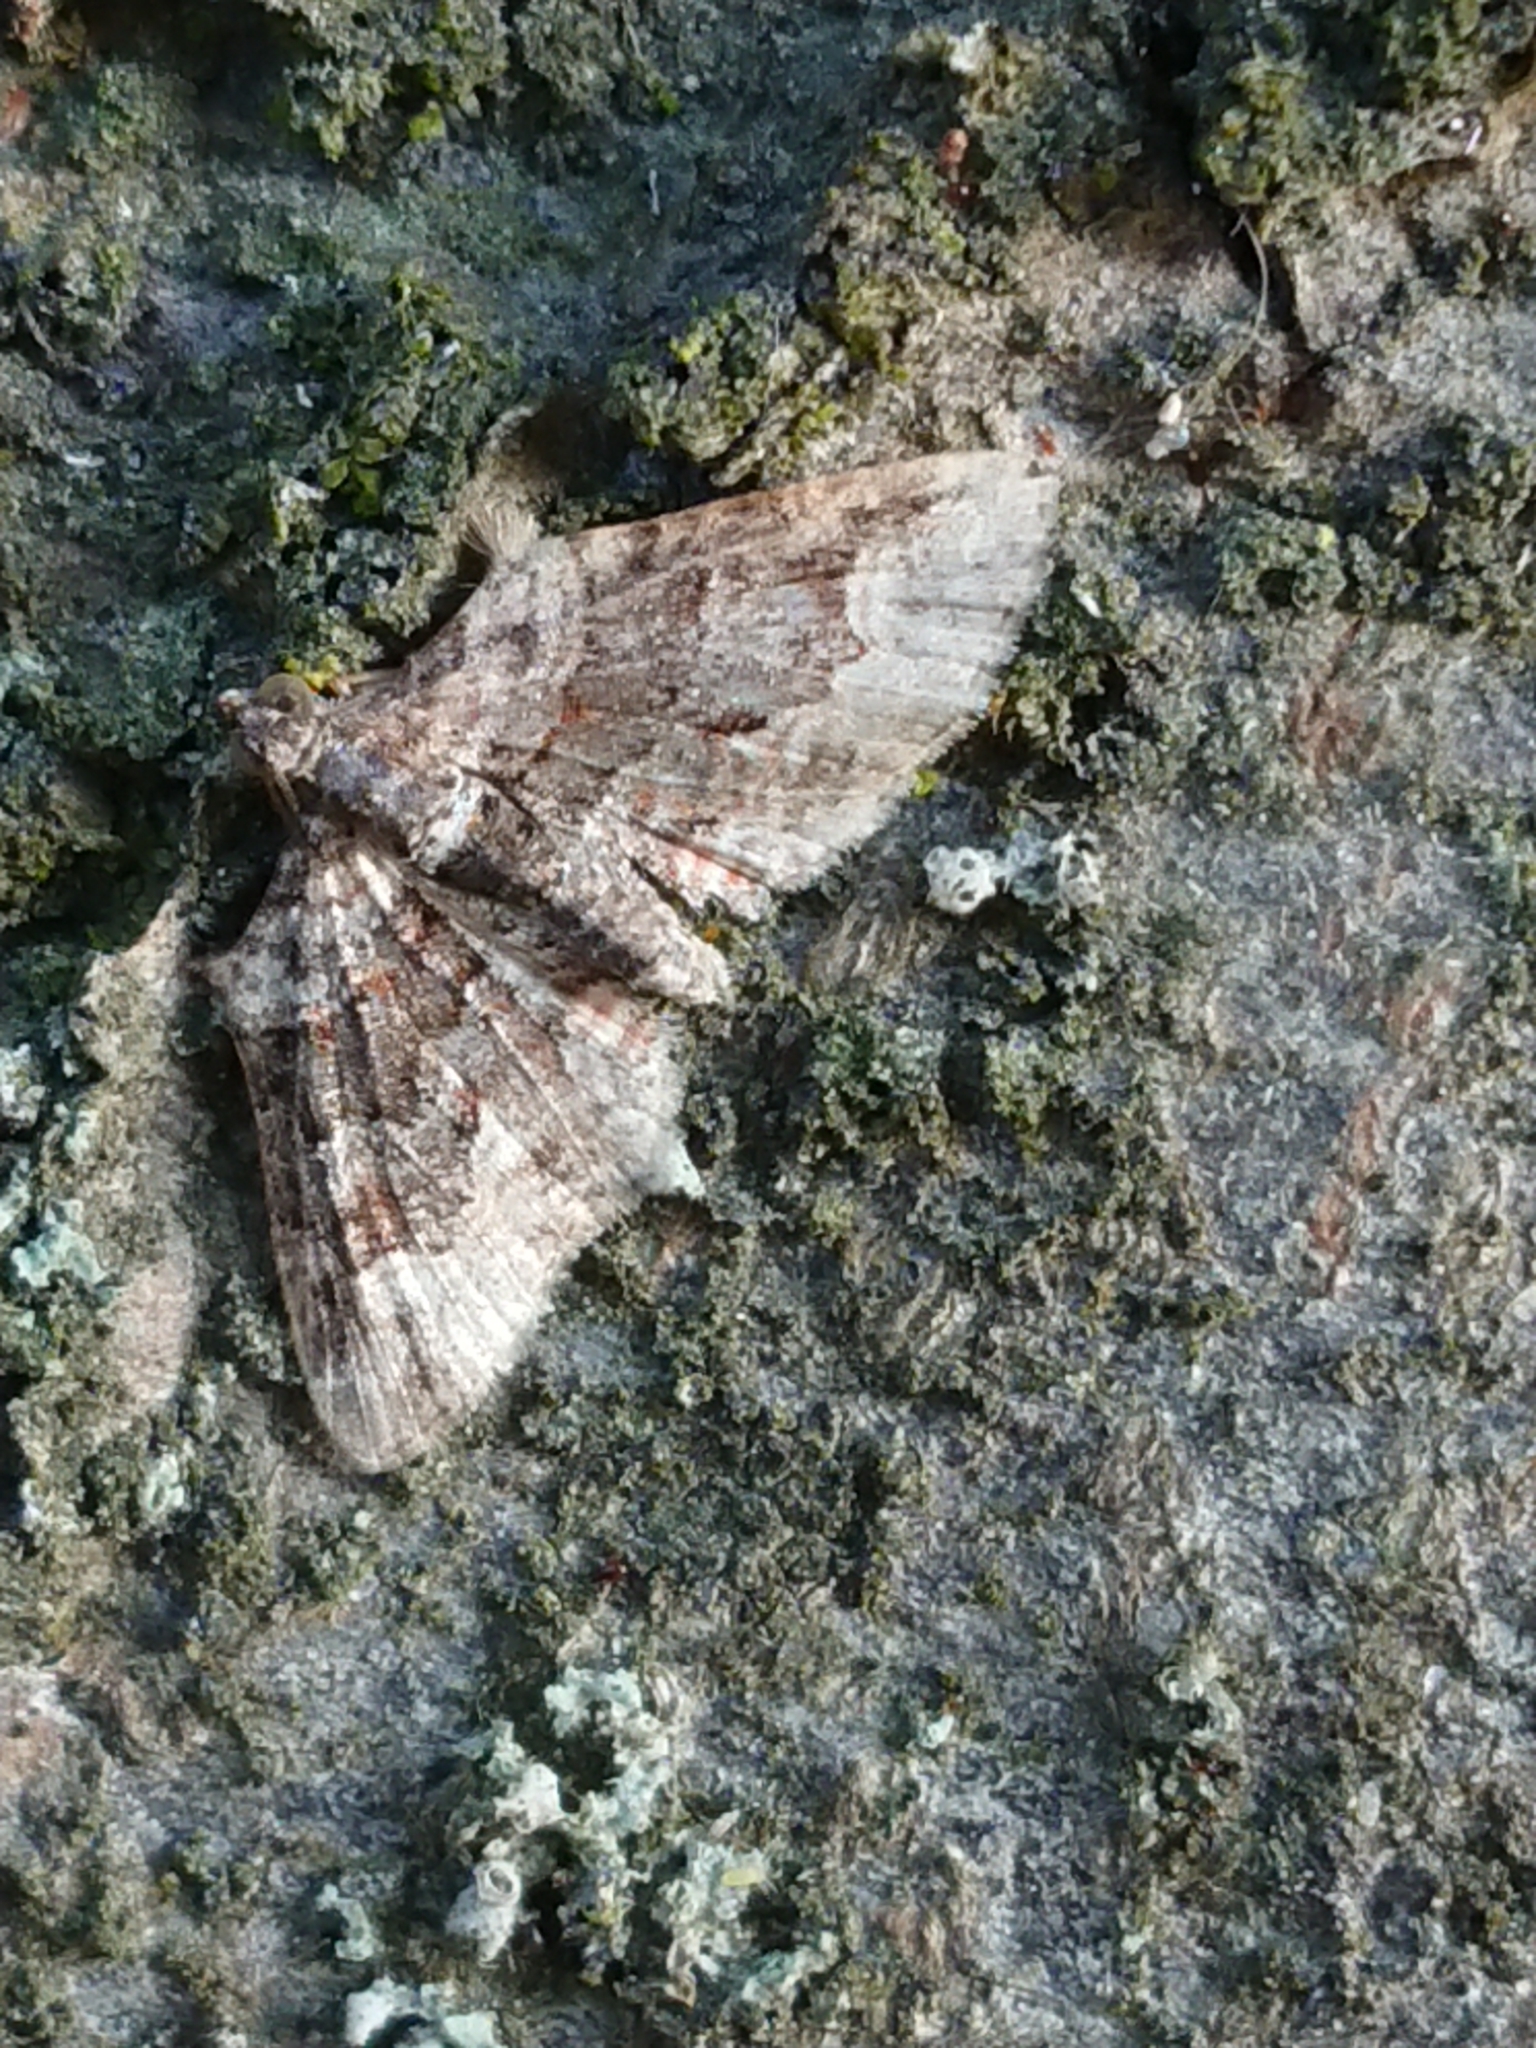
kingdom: Animalia
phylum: Arthropoda
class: Insecta
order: Lepidoptera
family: Geometridae
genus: Phrissogonus
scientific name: Phrissogonus laticostata
